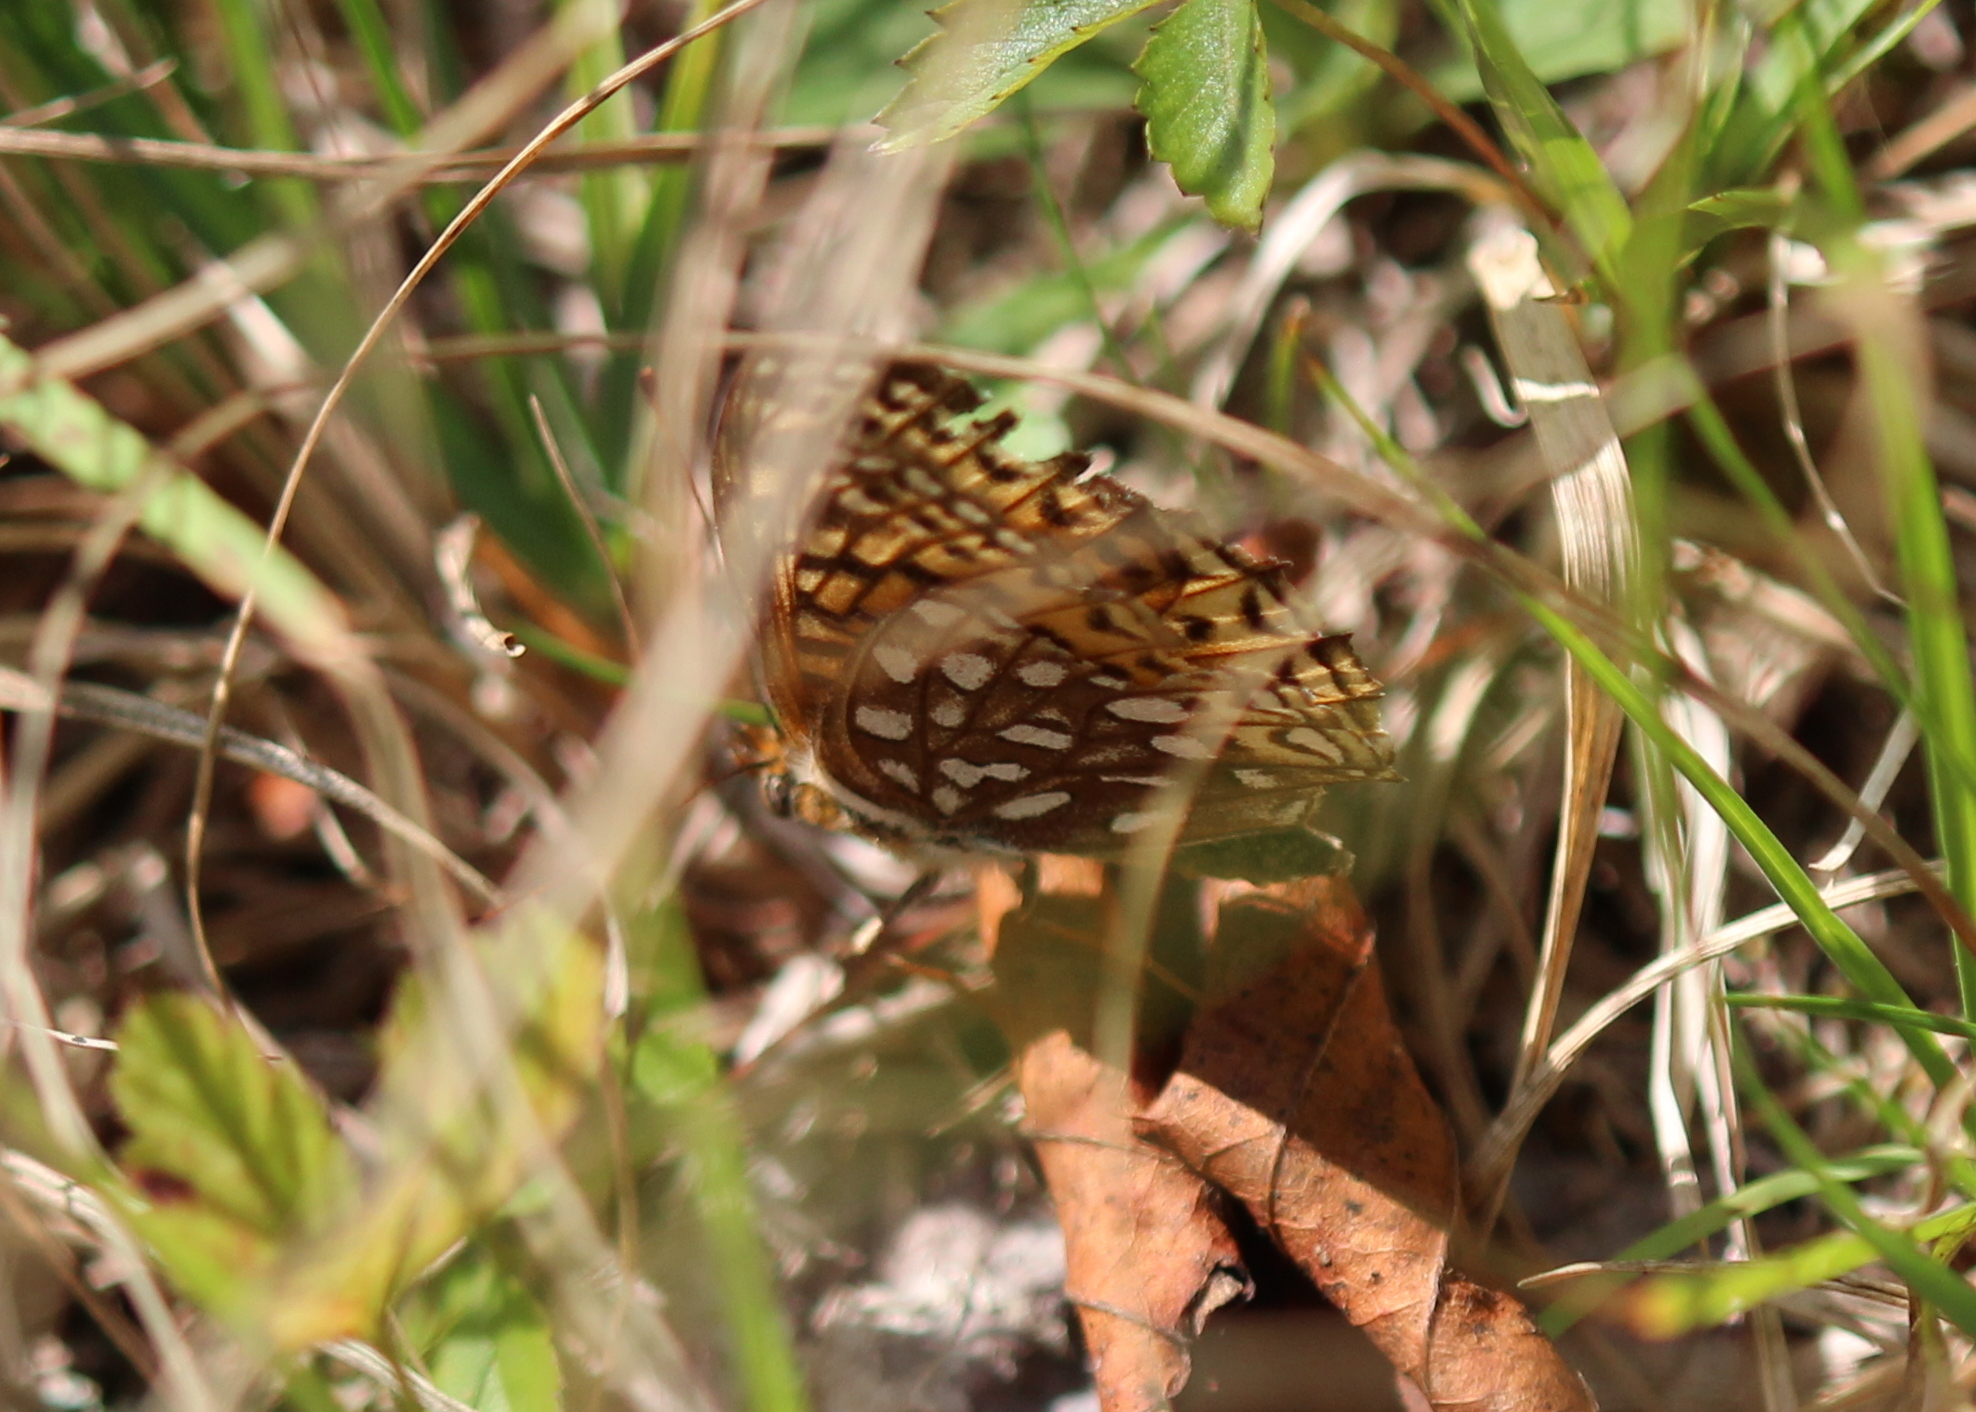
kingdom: Animalia
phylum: Arthropoda
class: Insecta
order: Lepidoptera
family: Nymphalidae
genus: Speyeria
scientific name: Speyeria atlantis
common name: Atlantis fritillary
